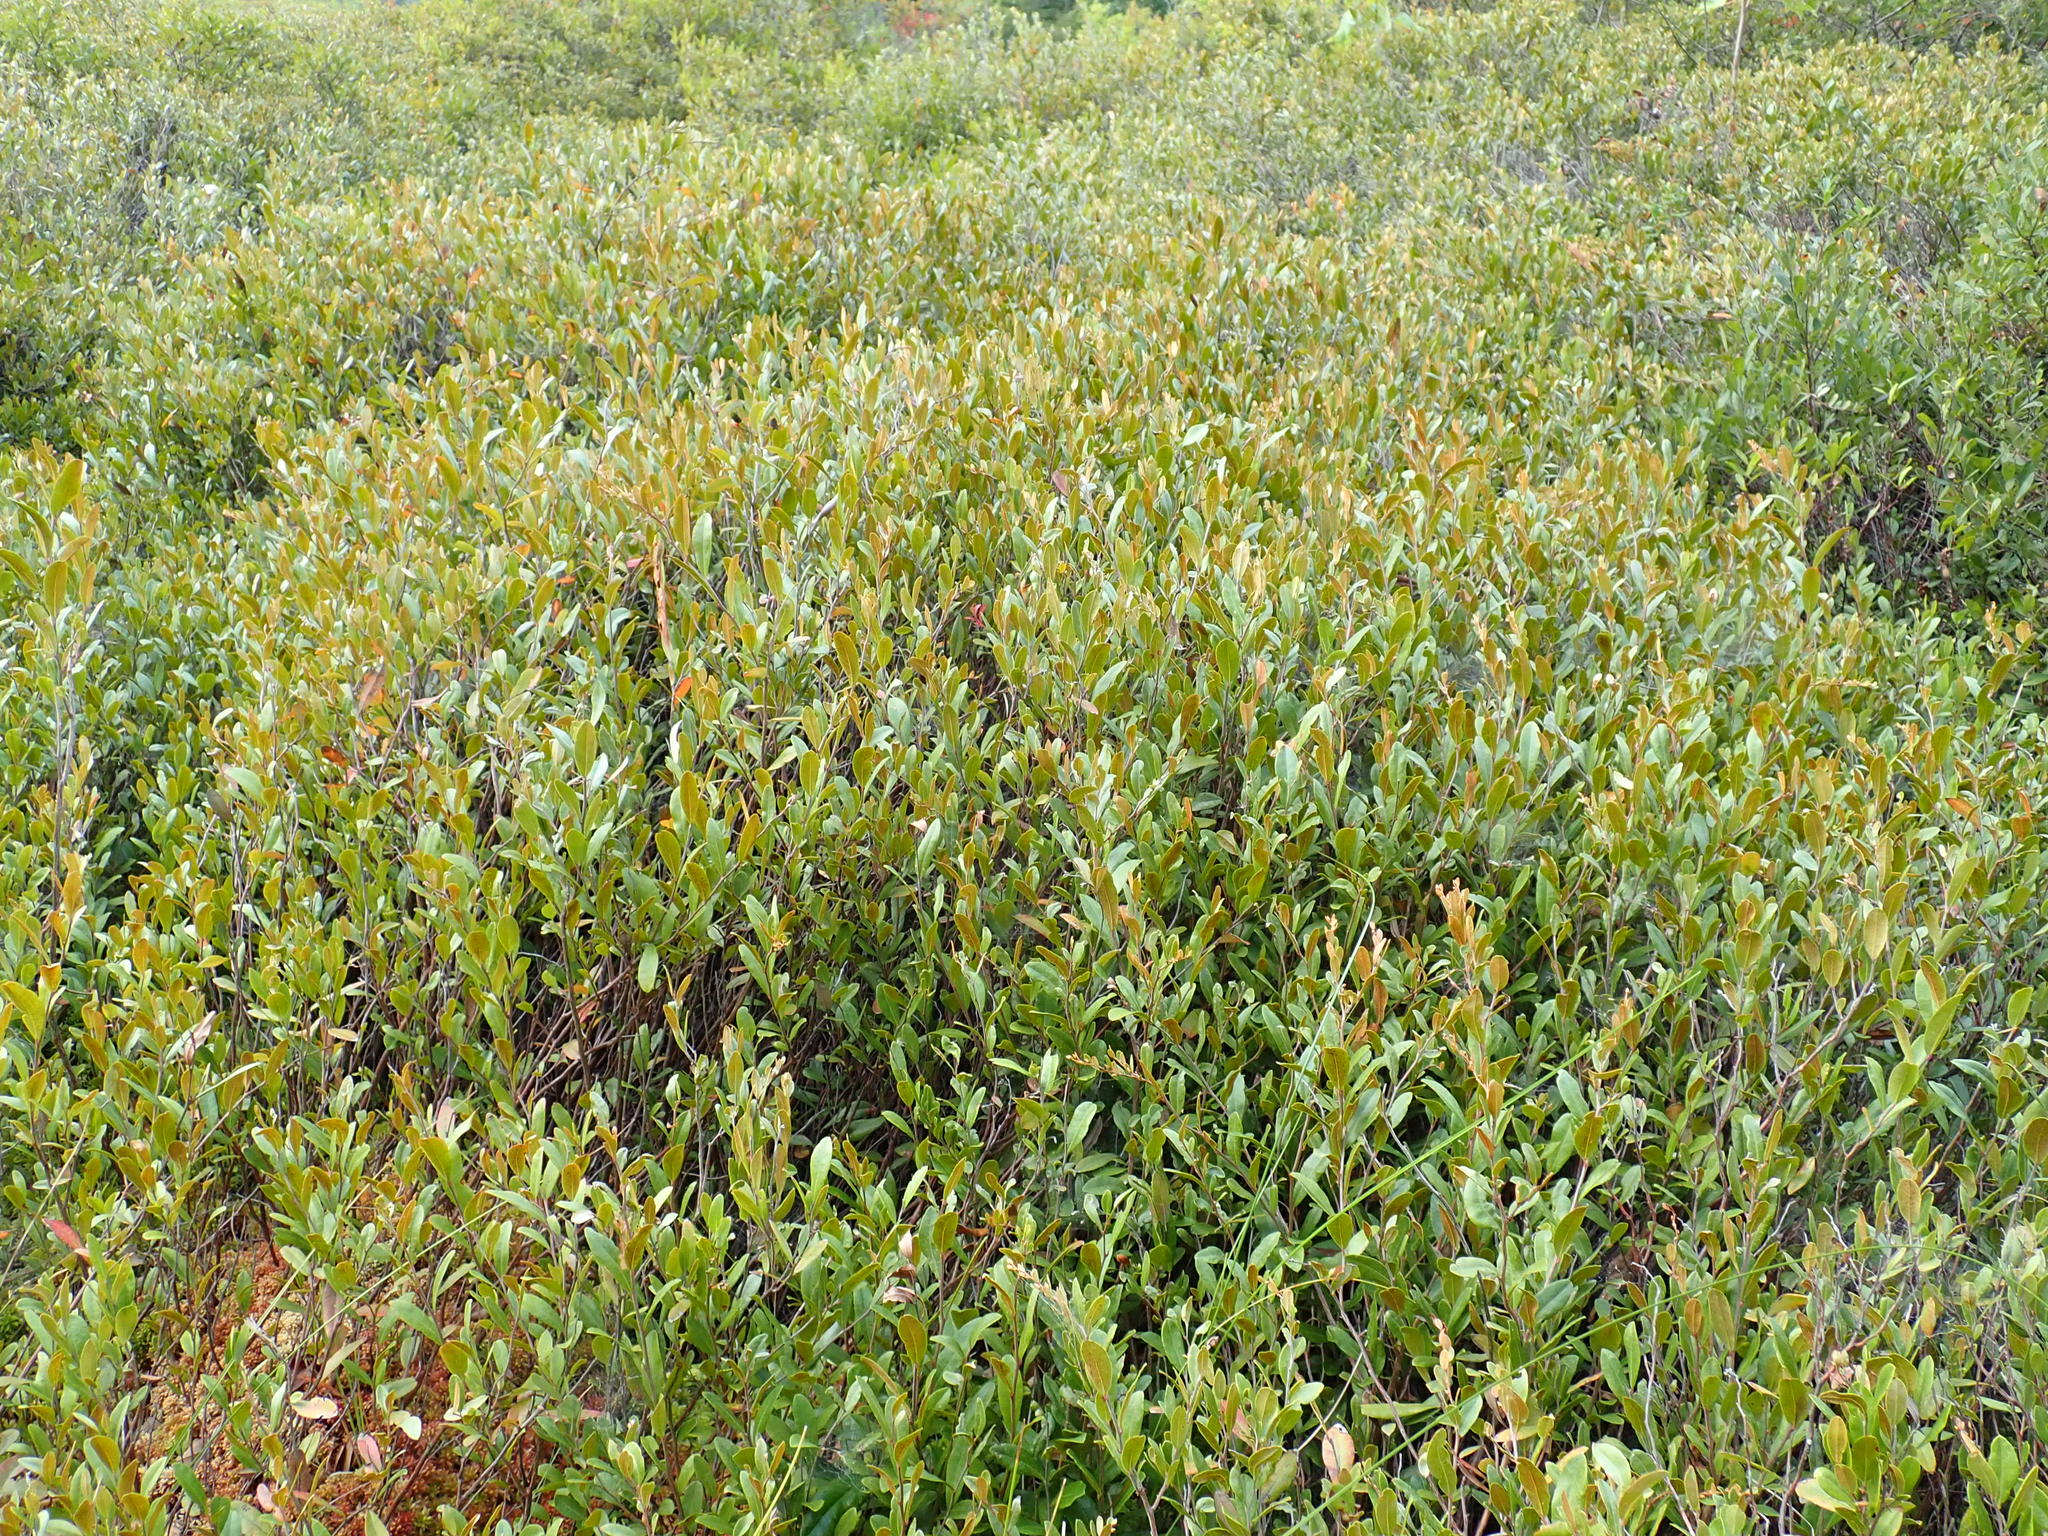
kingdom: Plantae
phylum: Tracheophyta
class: Magnoliopsida
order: Ericales
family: Ericaceae
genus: Chamaedaphne
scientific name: Chamaedaphne calyculata
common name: Leatherleaf
